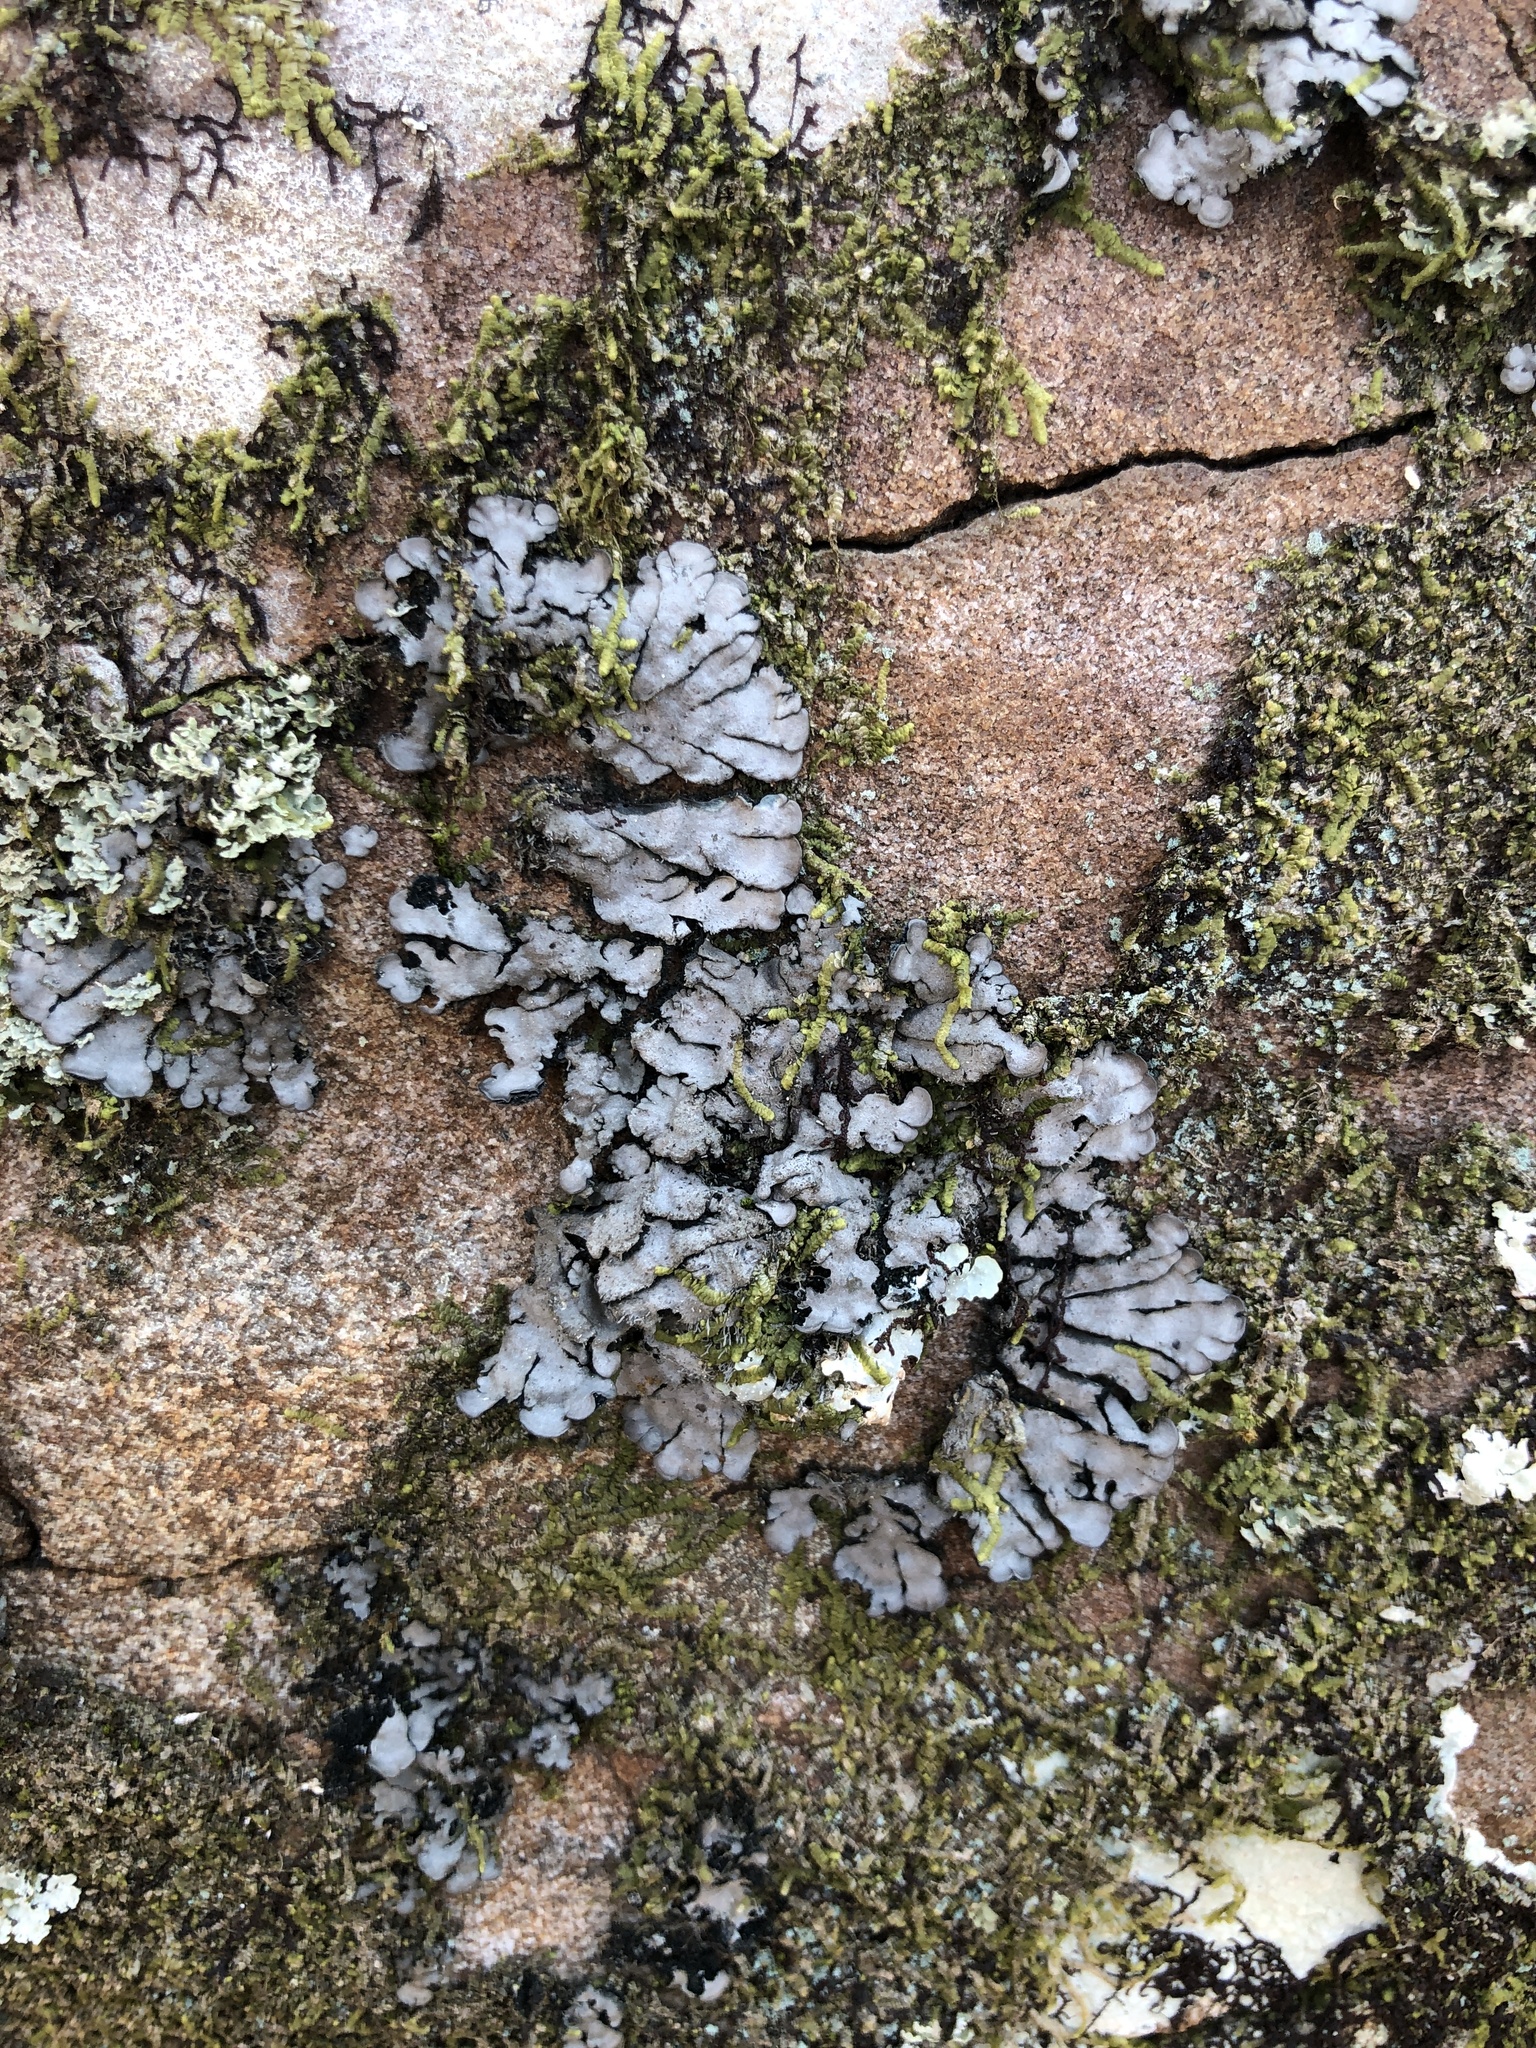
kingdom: Fungi
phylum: Ascomycota
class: Lecanoromycetes
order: Peltigerales
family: Coccocarpiaceae
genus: Coccocarpia
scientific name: Coccocarpia palmicola
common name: Salted shell lichen
